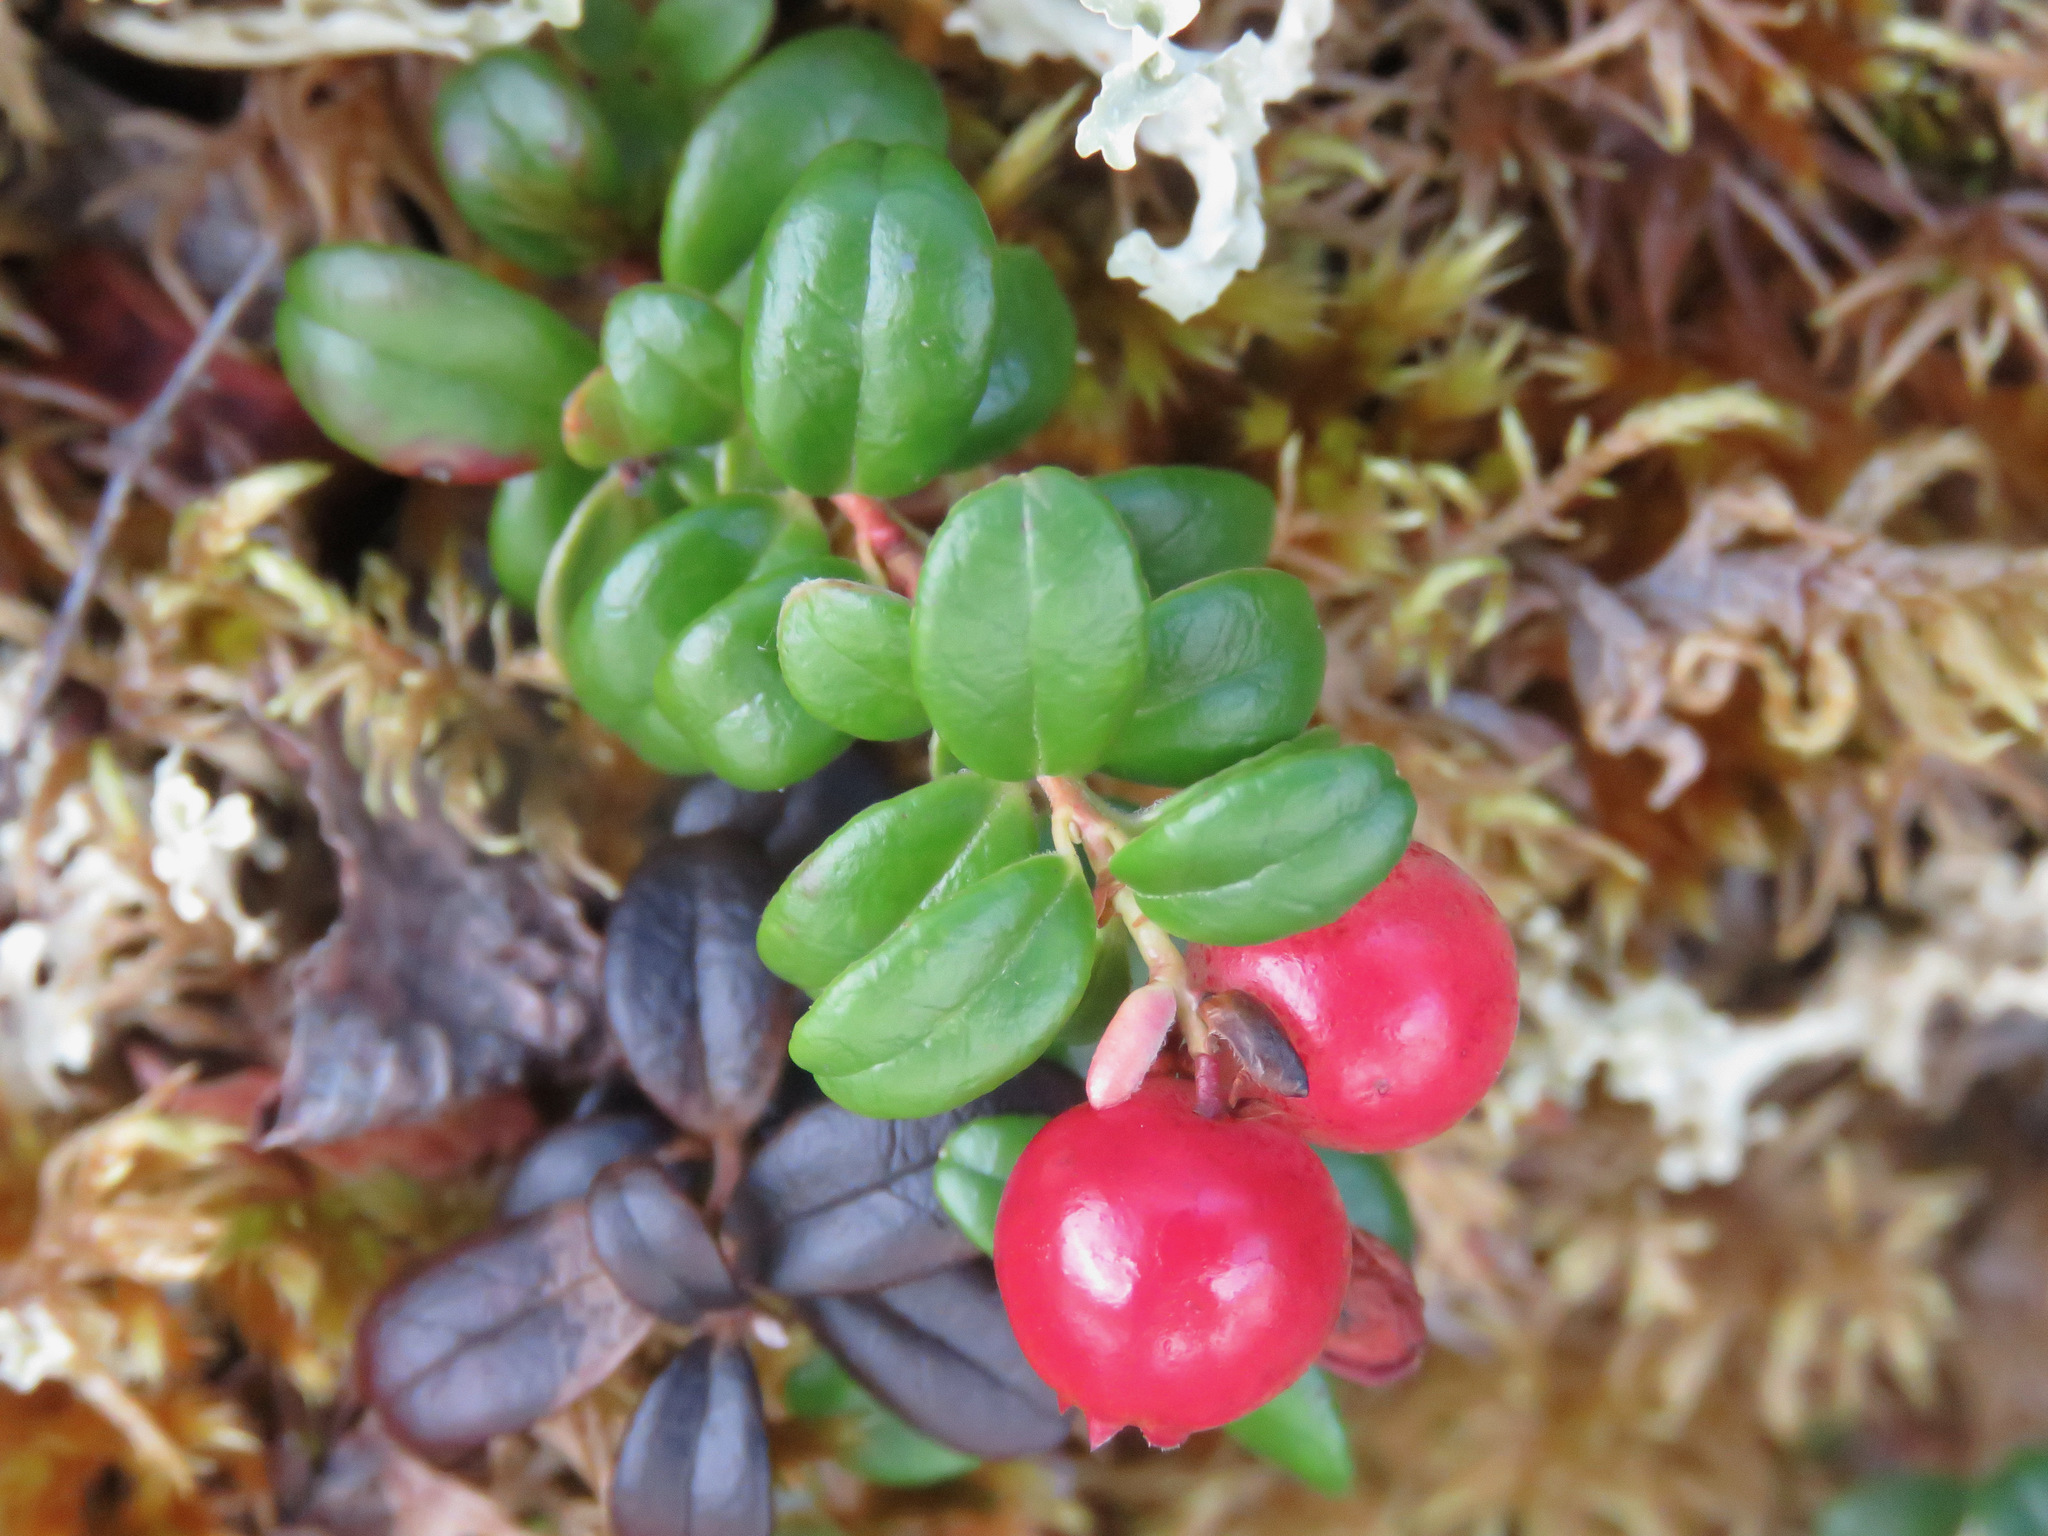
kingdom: Plantae
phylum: Tracheophyta
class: Magnoliopsida
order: Ericales
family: Ericaceae
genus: Vaccinium
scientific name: Vaccinium vitis-idaea
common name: Cowberry
